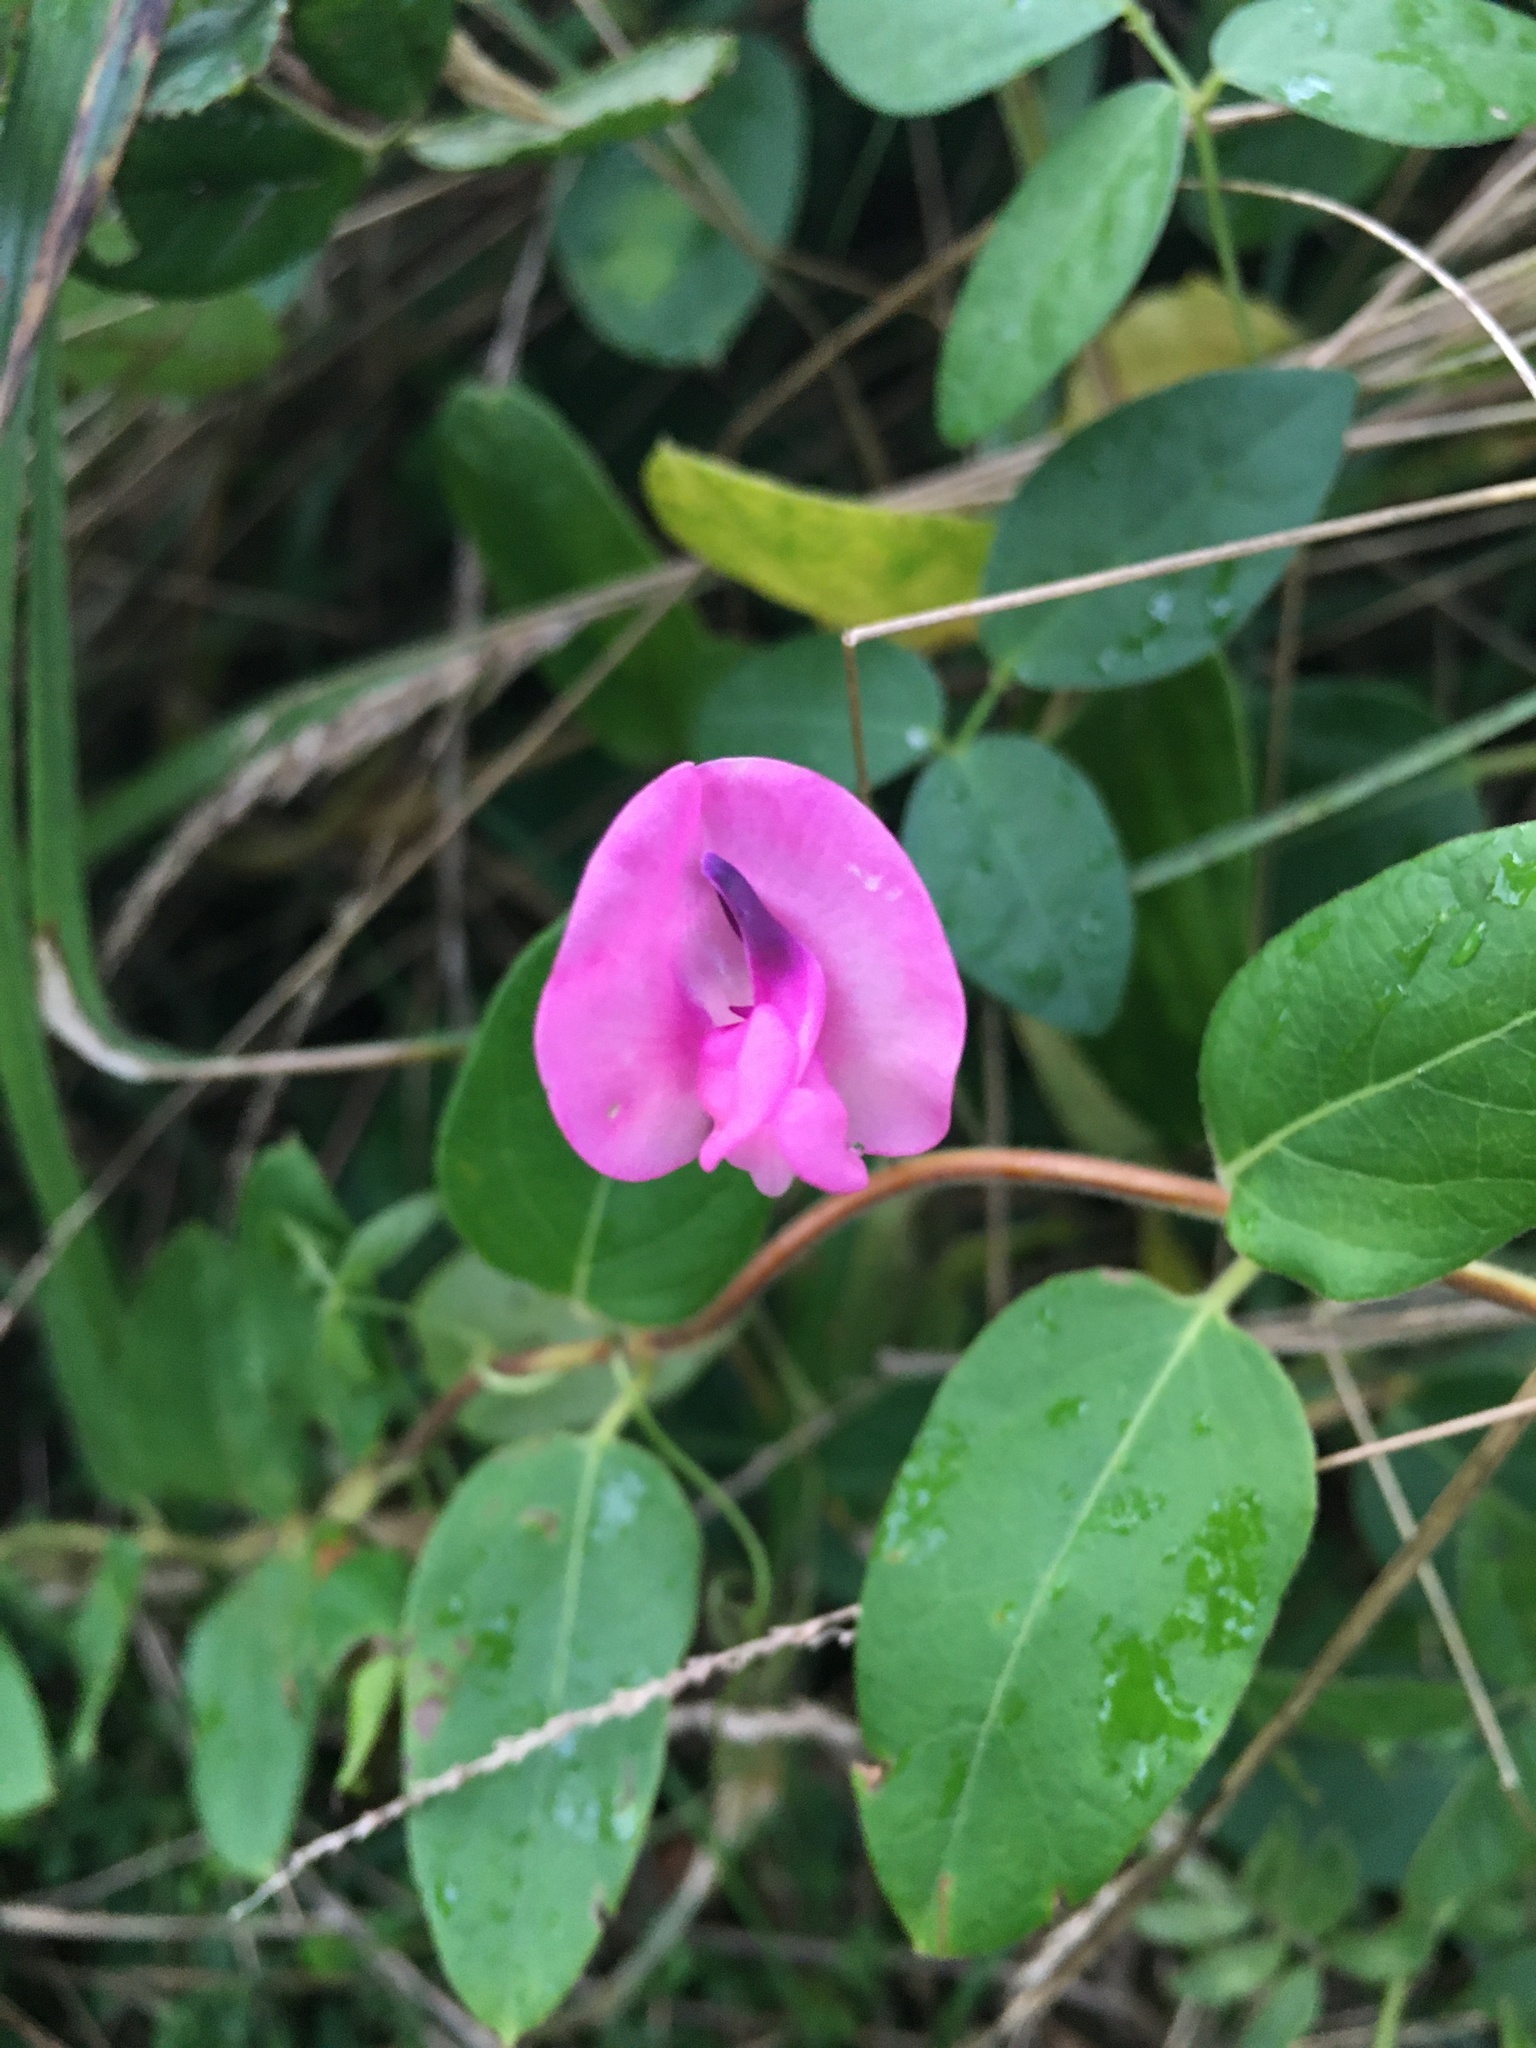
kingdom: Plantae
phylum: Tracheophyta
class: Magnoliopsida
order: Fabales
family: Fabaceae
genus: Strophostyles
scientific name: Strophostyles umbellata
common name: Perennial wild bean
